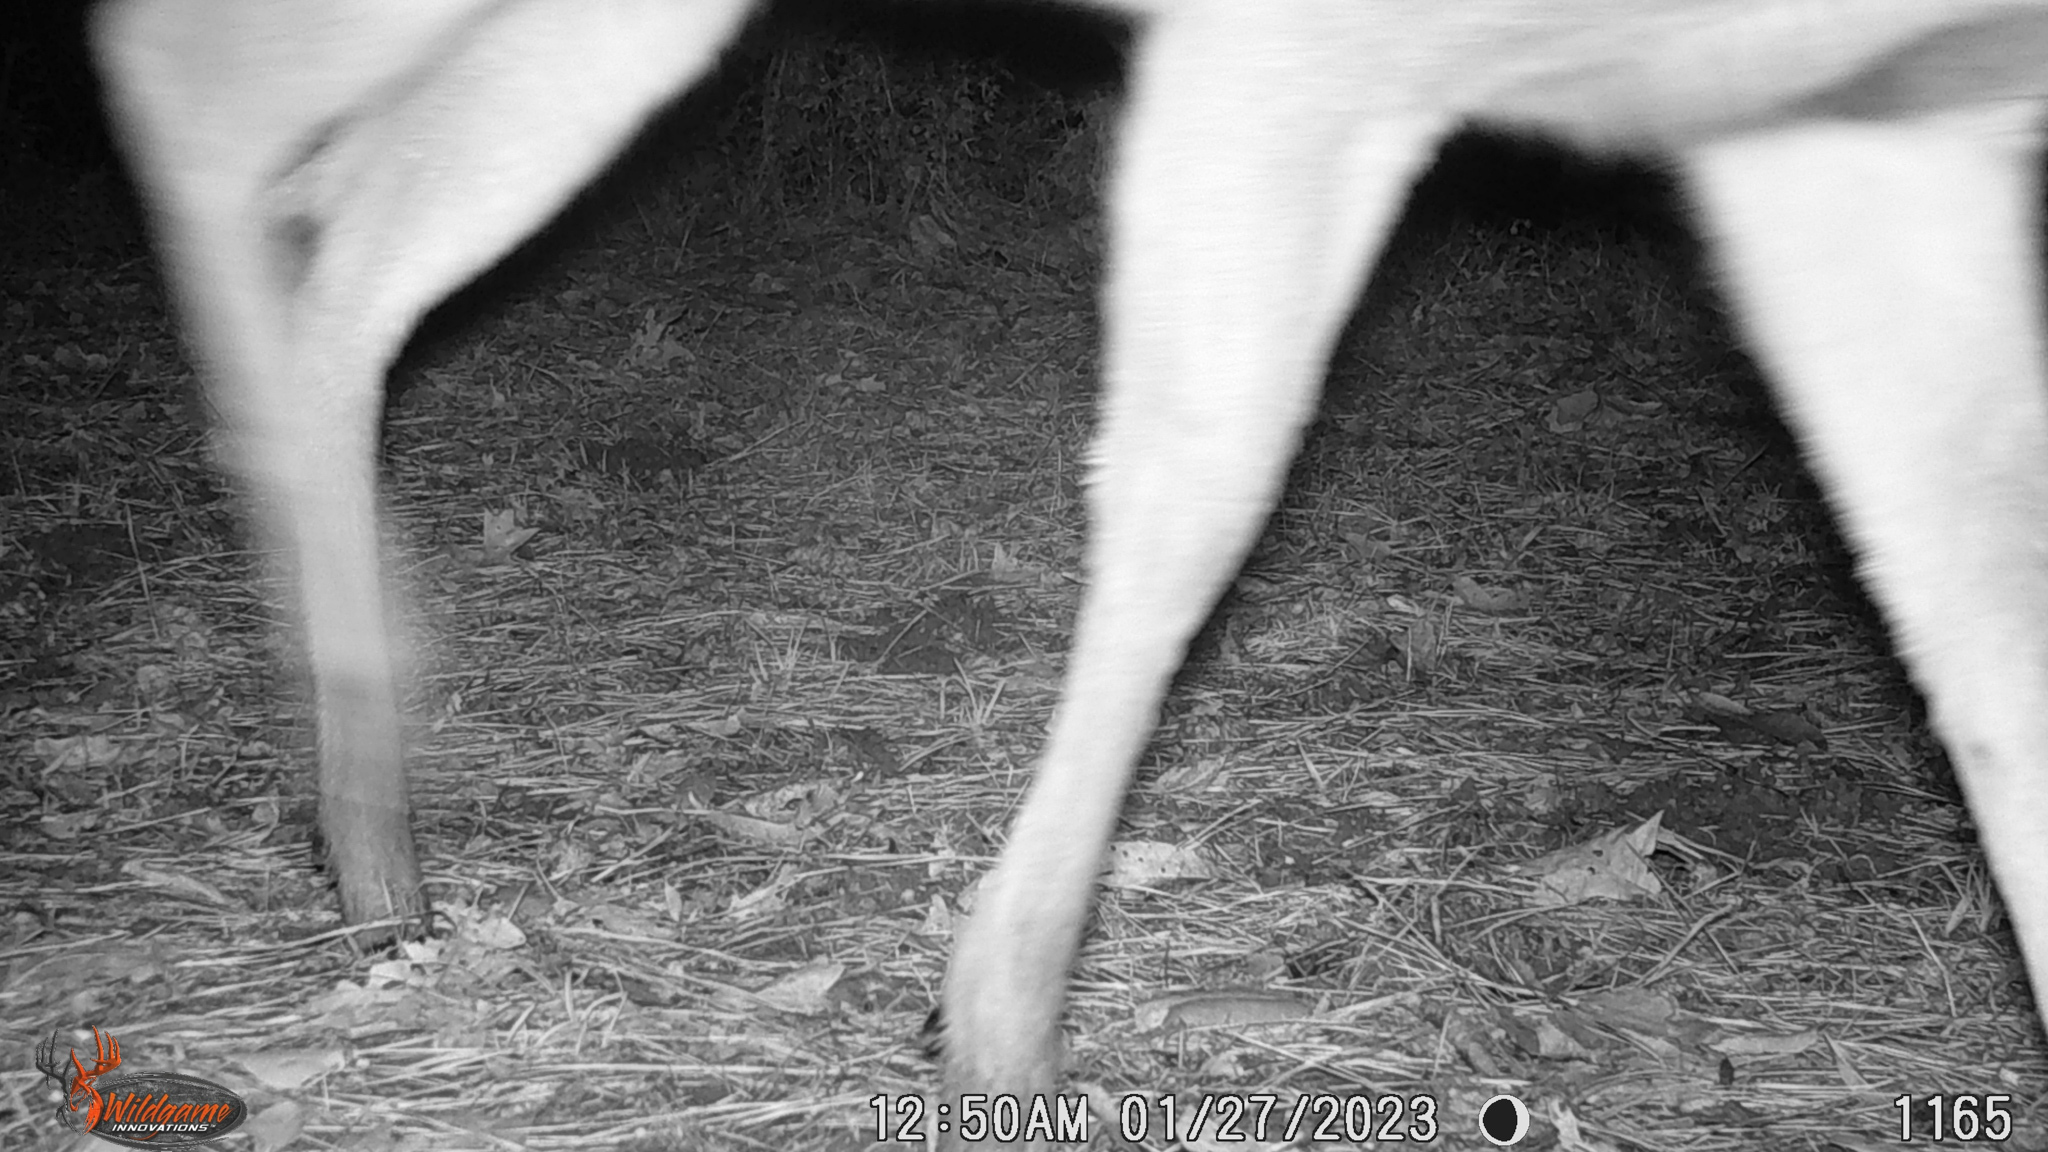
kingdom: Animalia
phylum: Chordata
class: Mammalia
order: Artiodactyla
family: Cervidae
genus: Odocoileus
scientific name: Odocoileus virginianus
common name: White-tailed deer
